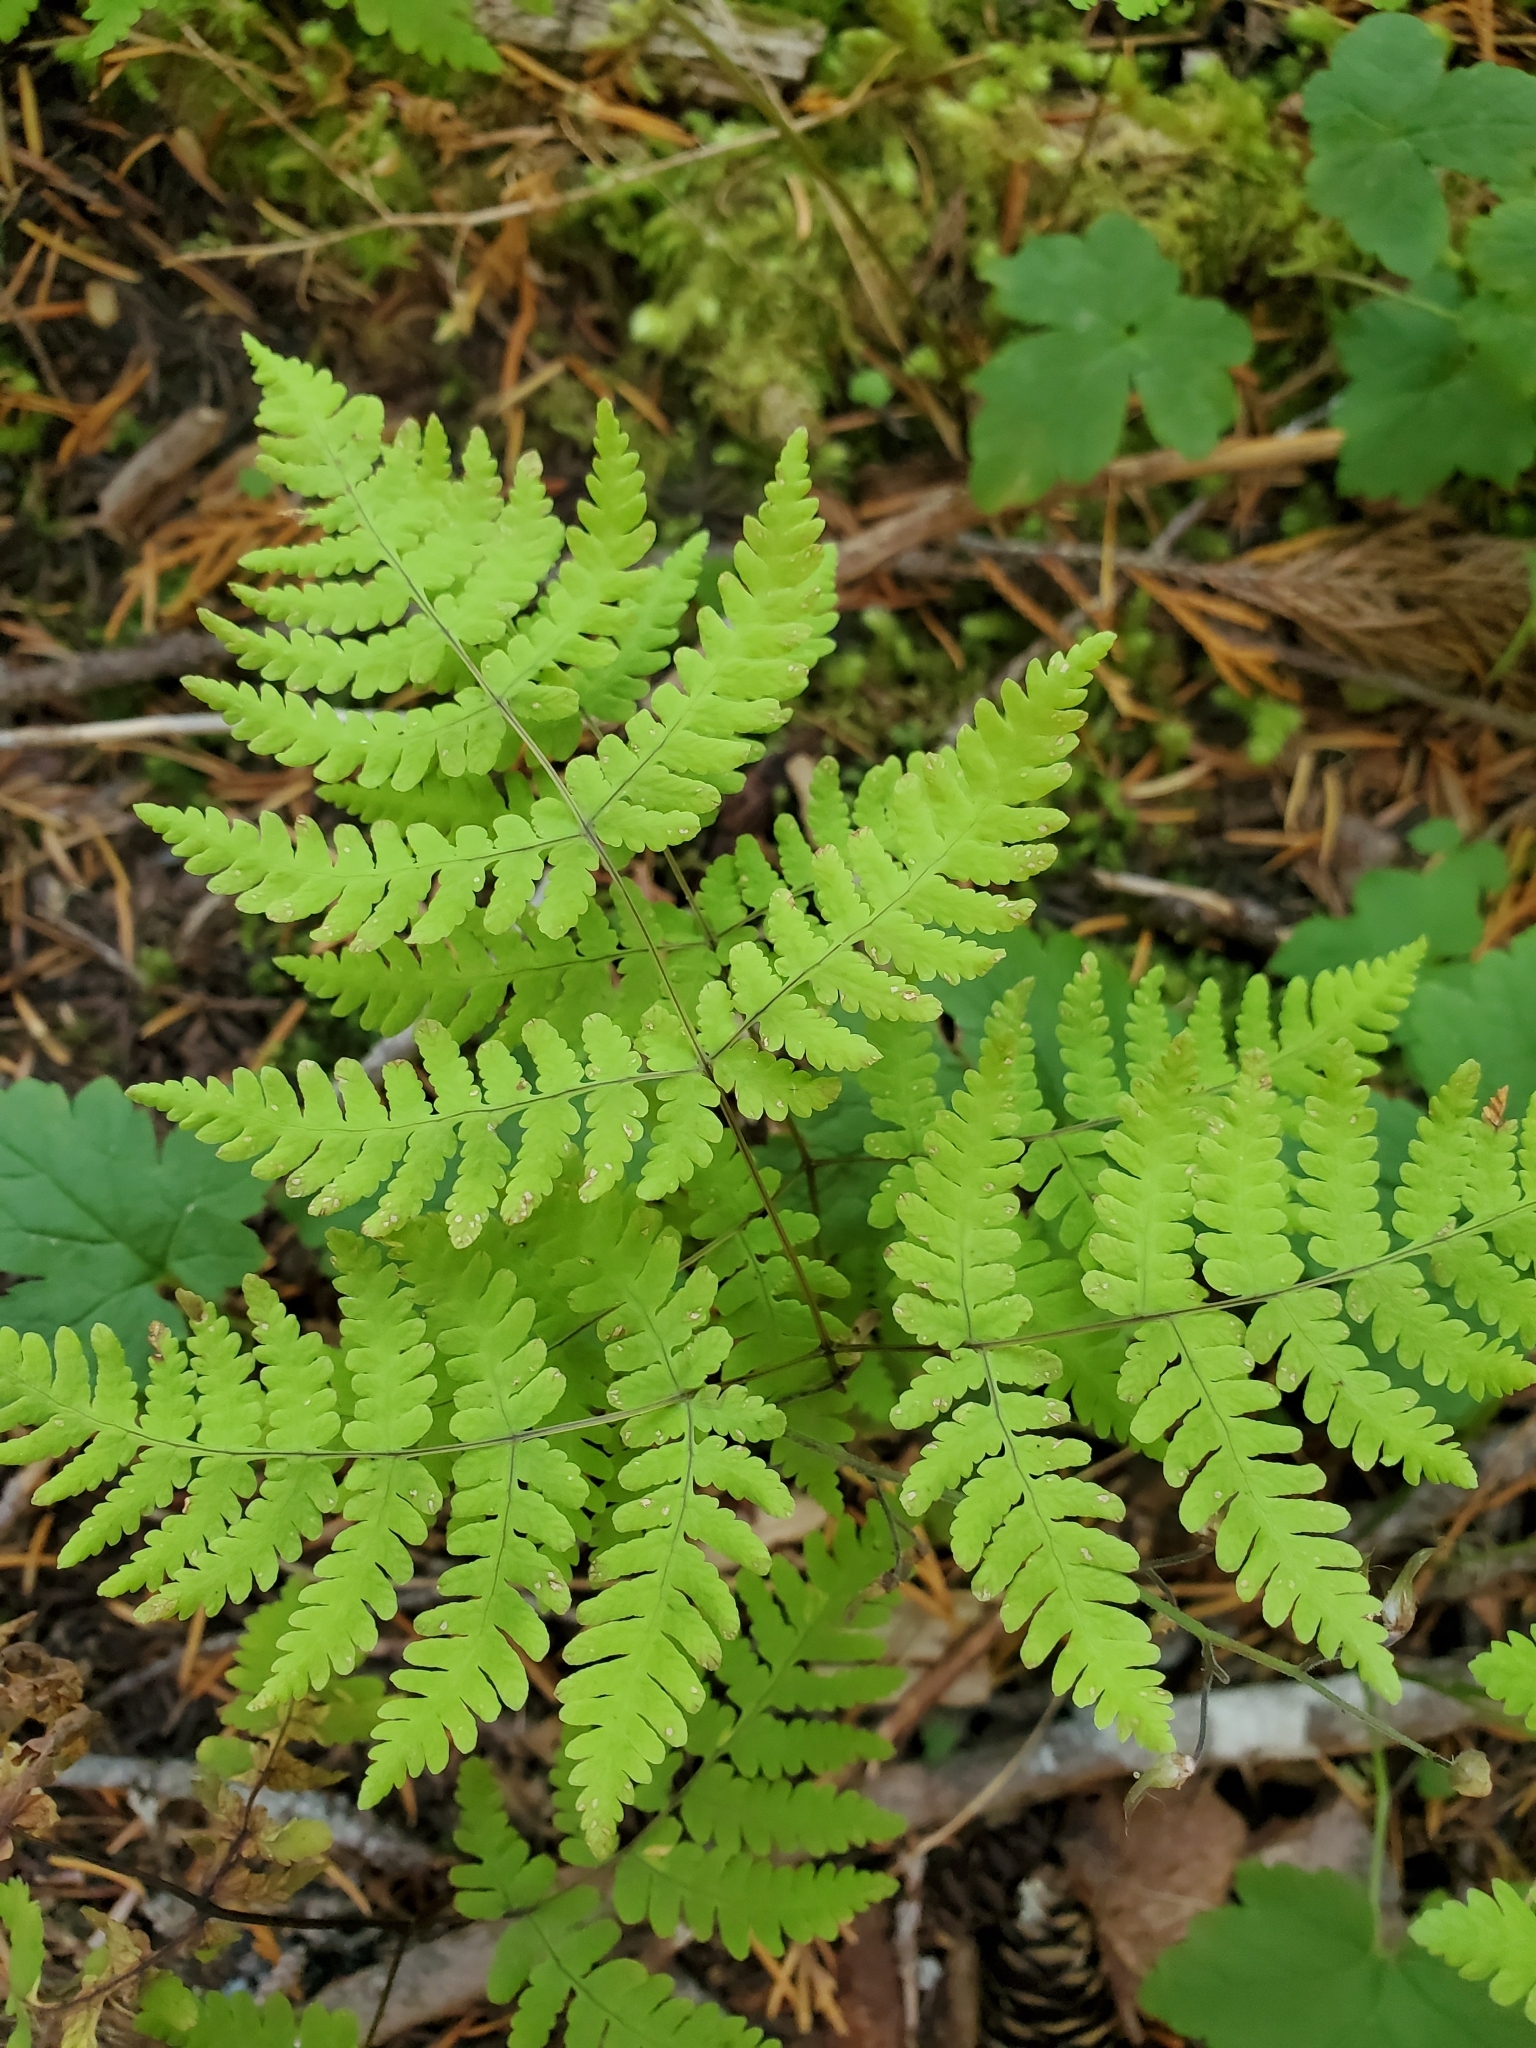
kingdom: Plantae
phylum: Tracheophyta
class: Polypodiopsida
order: Polypodiales
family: Cystopteridaceae
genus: Gymnocarpium
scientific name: Gymnocarpium dryopteris
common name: Oak fern
